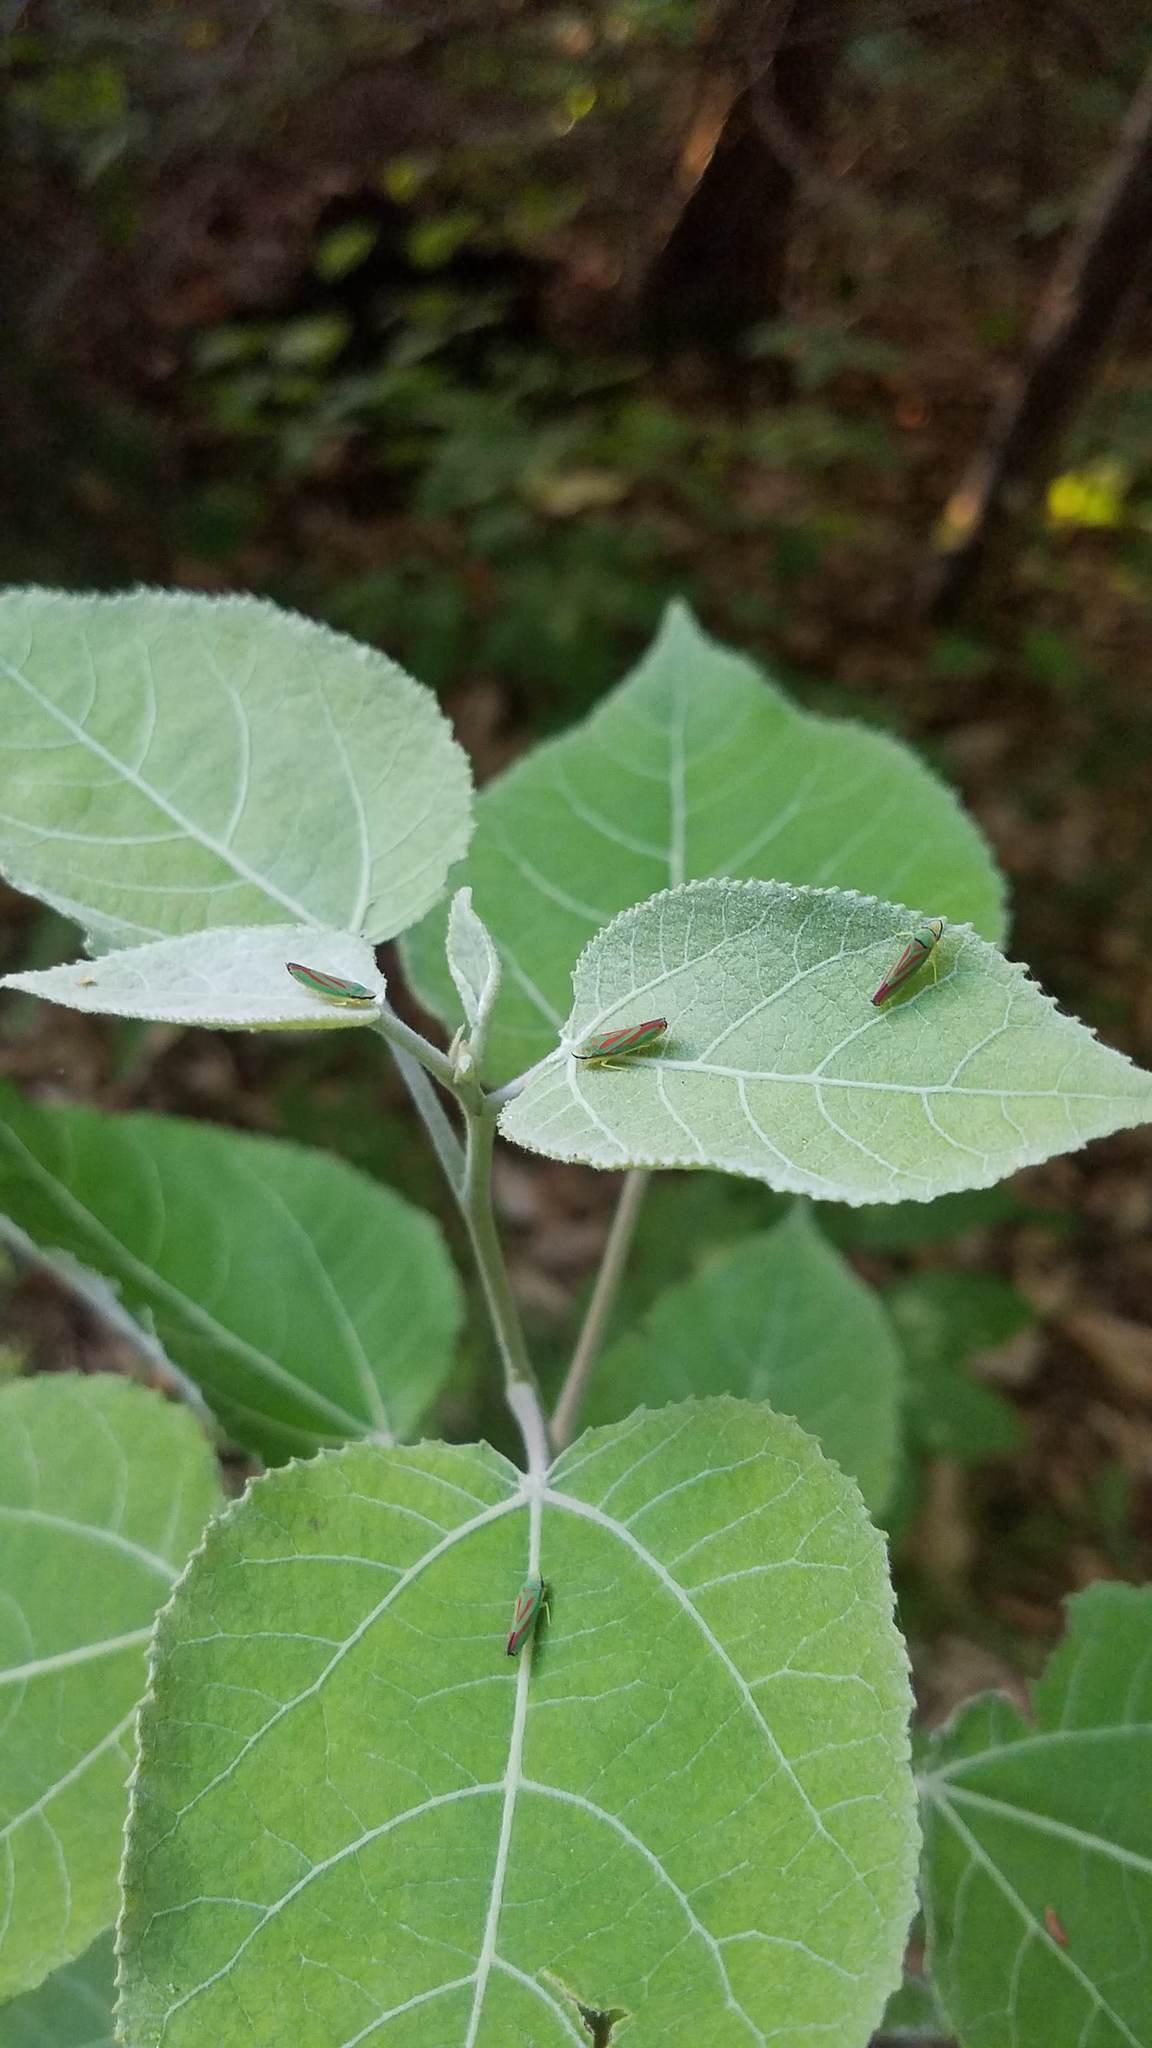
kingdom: Animalia
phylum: Arthropoda
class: Insecta
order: Hemiptera
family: Cicadellidae
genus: Graphocephala
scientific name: Graphocephala coccinea
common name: Candy-striped leafhopper
